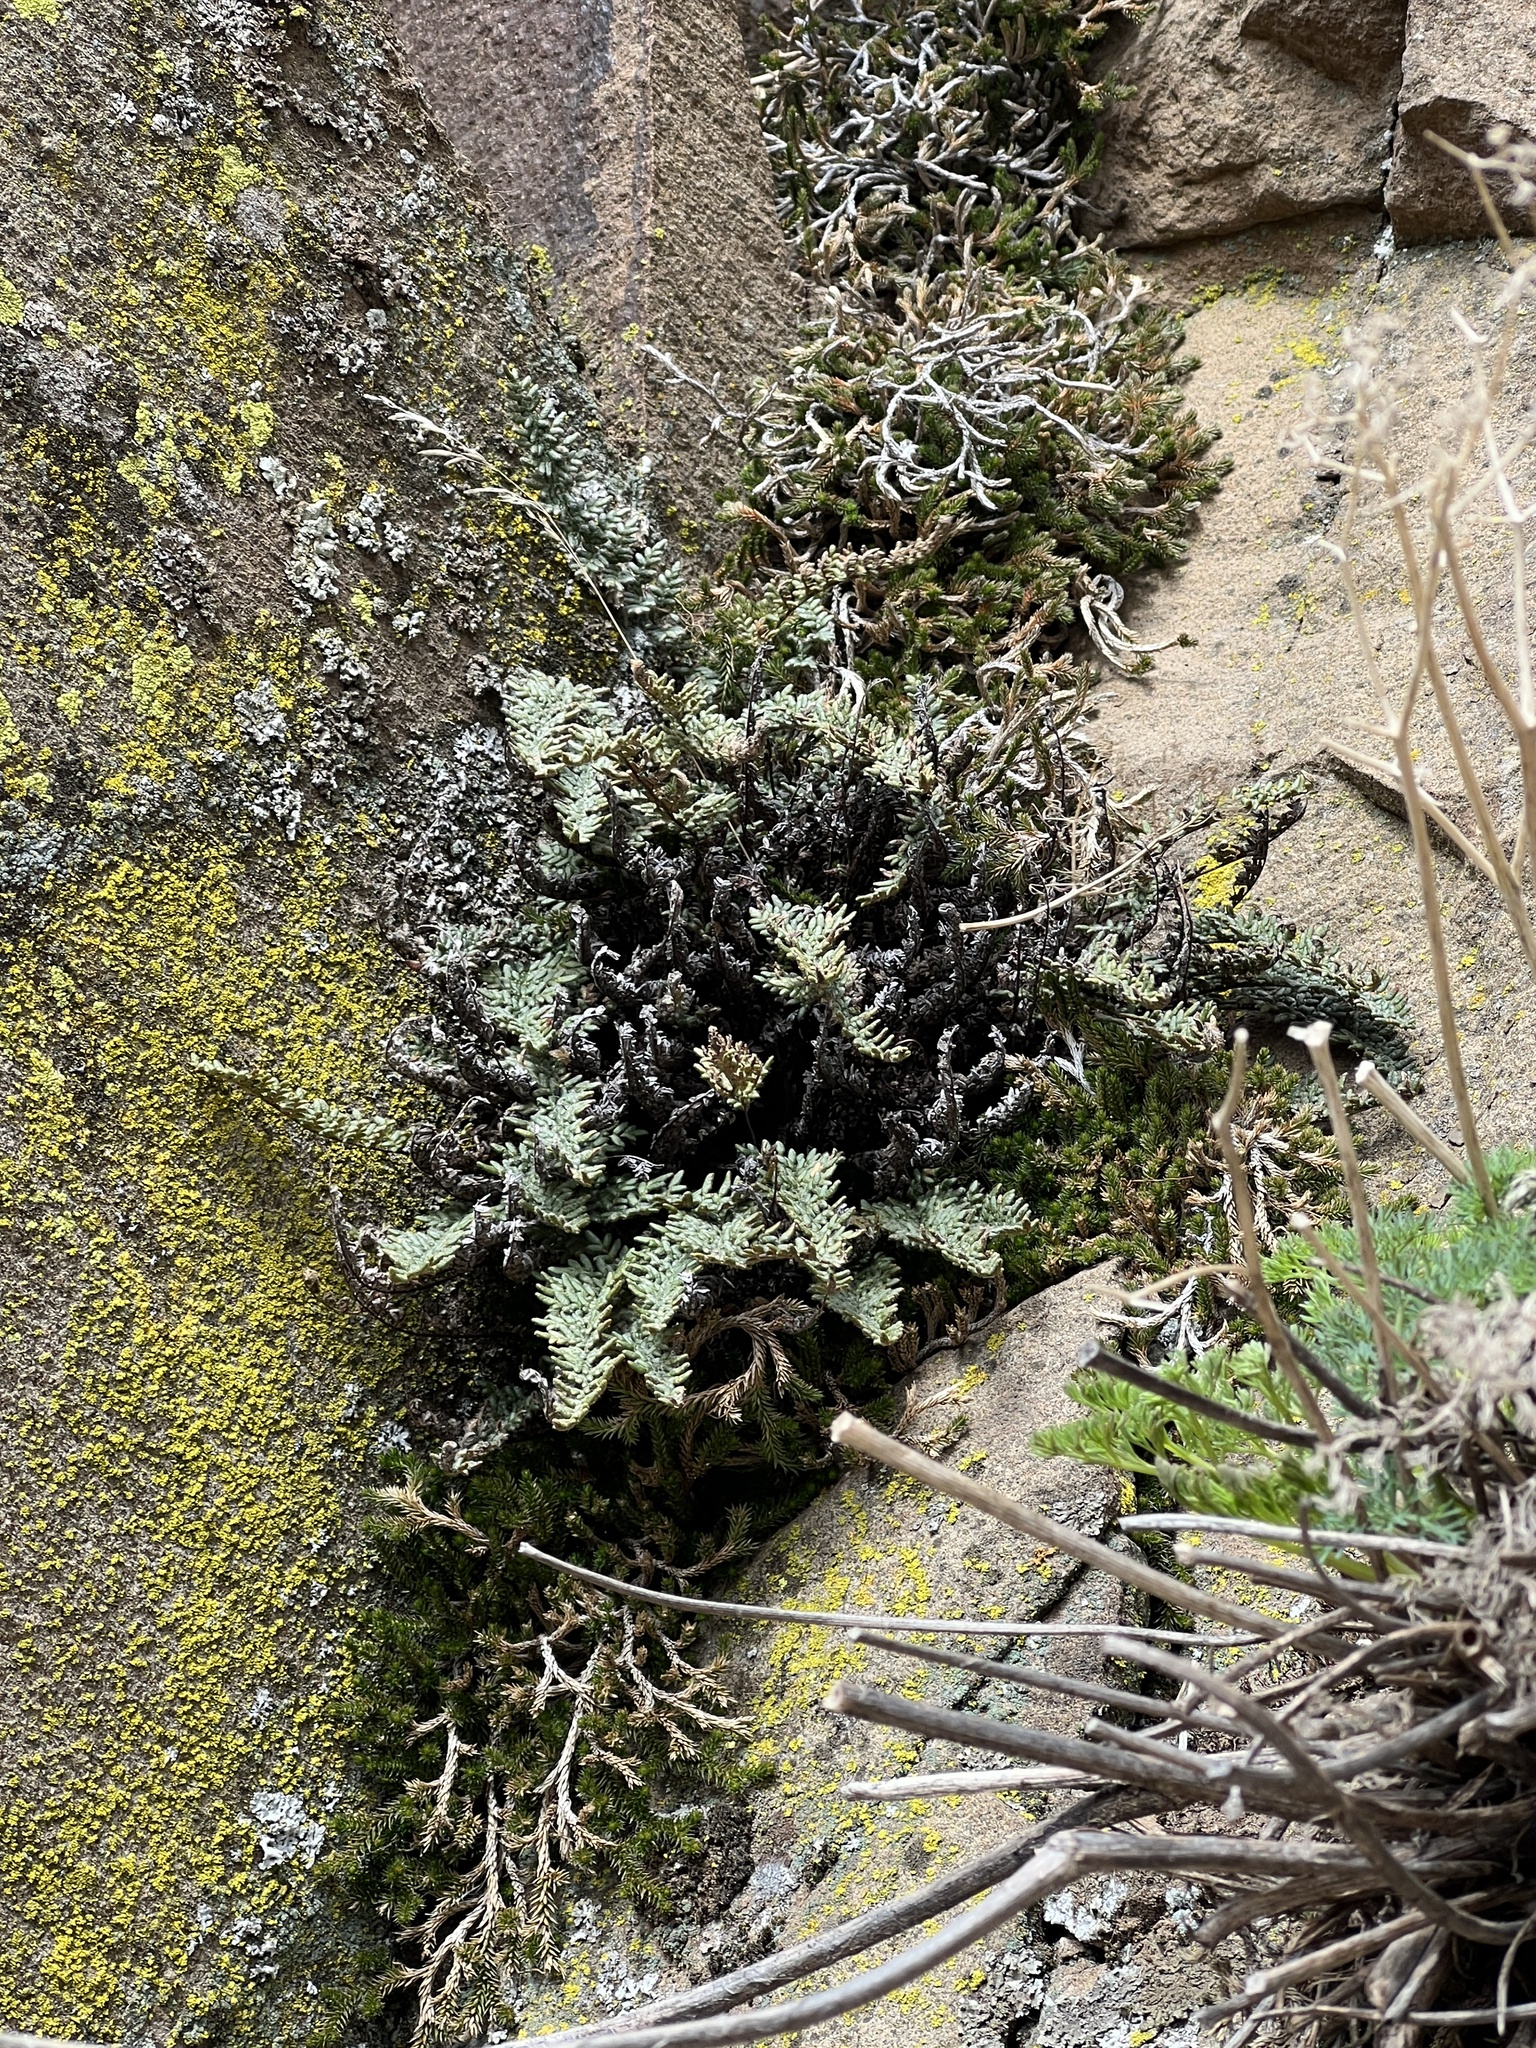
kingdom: Plantae
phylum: Tracheophyta
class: Polypodiopsida
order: Polypodiales
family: Pteridaceae
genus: Myriopteris
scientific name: Myriopteris gracillima
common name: Lace fern
